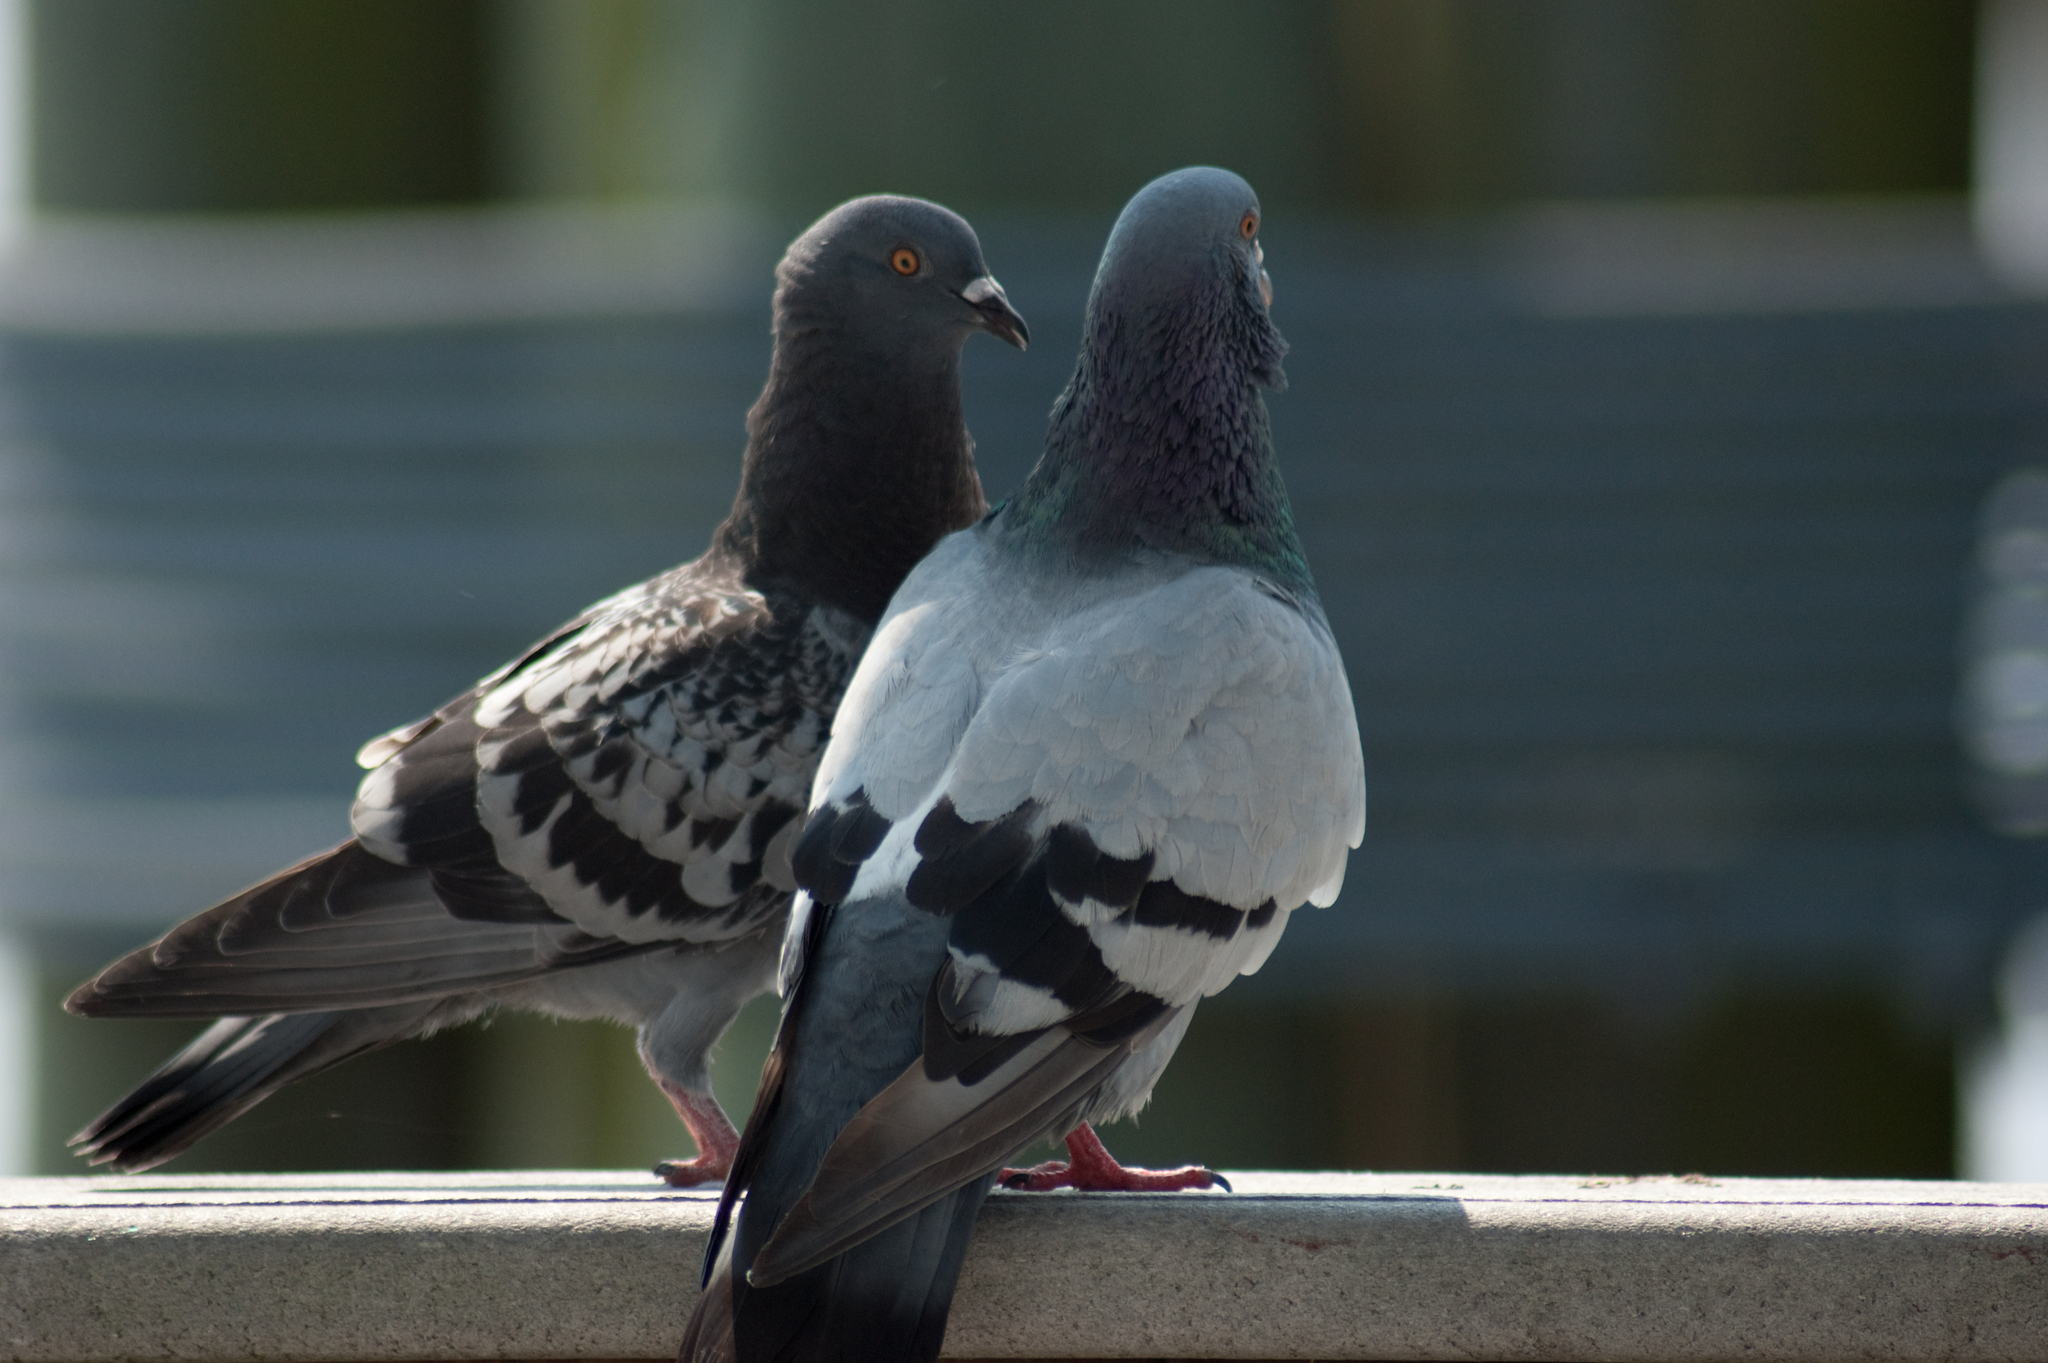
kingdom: Animalia
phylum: Chordata
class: Aves
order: Columbiformes
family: Columbidae
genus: Columba
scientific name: Columba livia
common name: Rock pigeon
